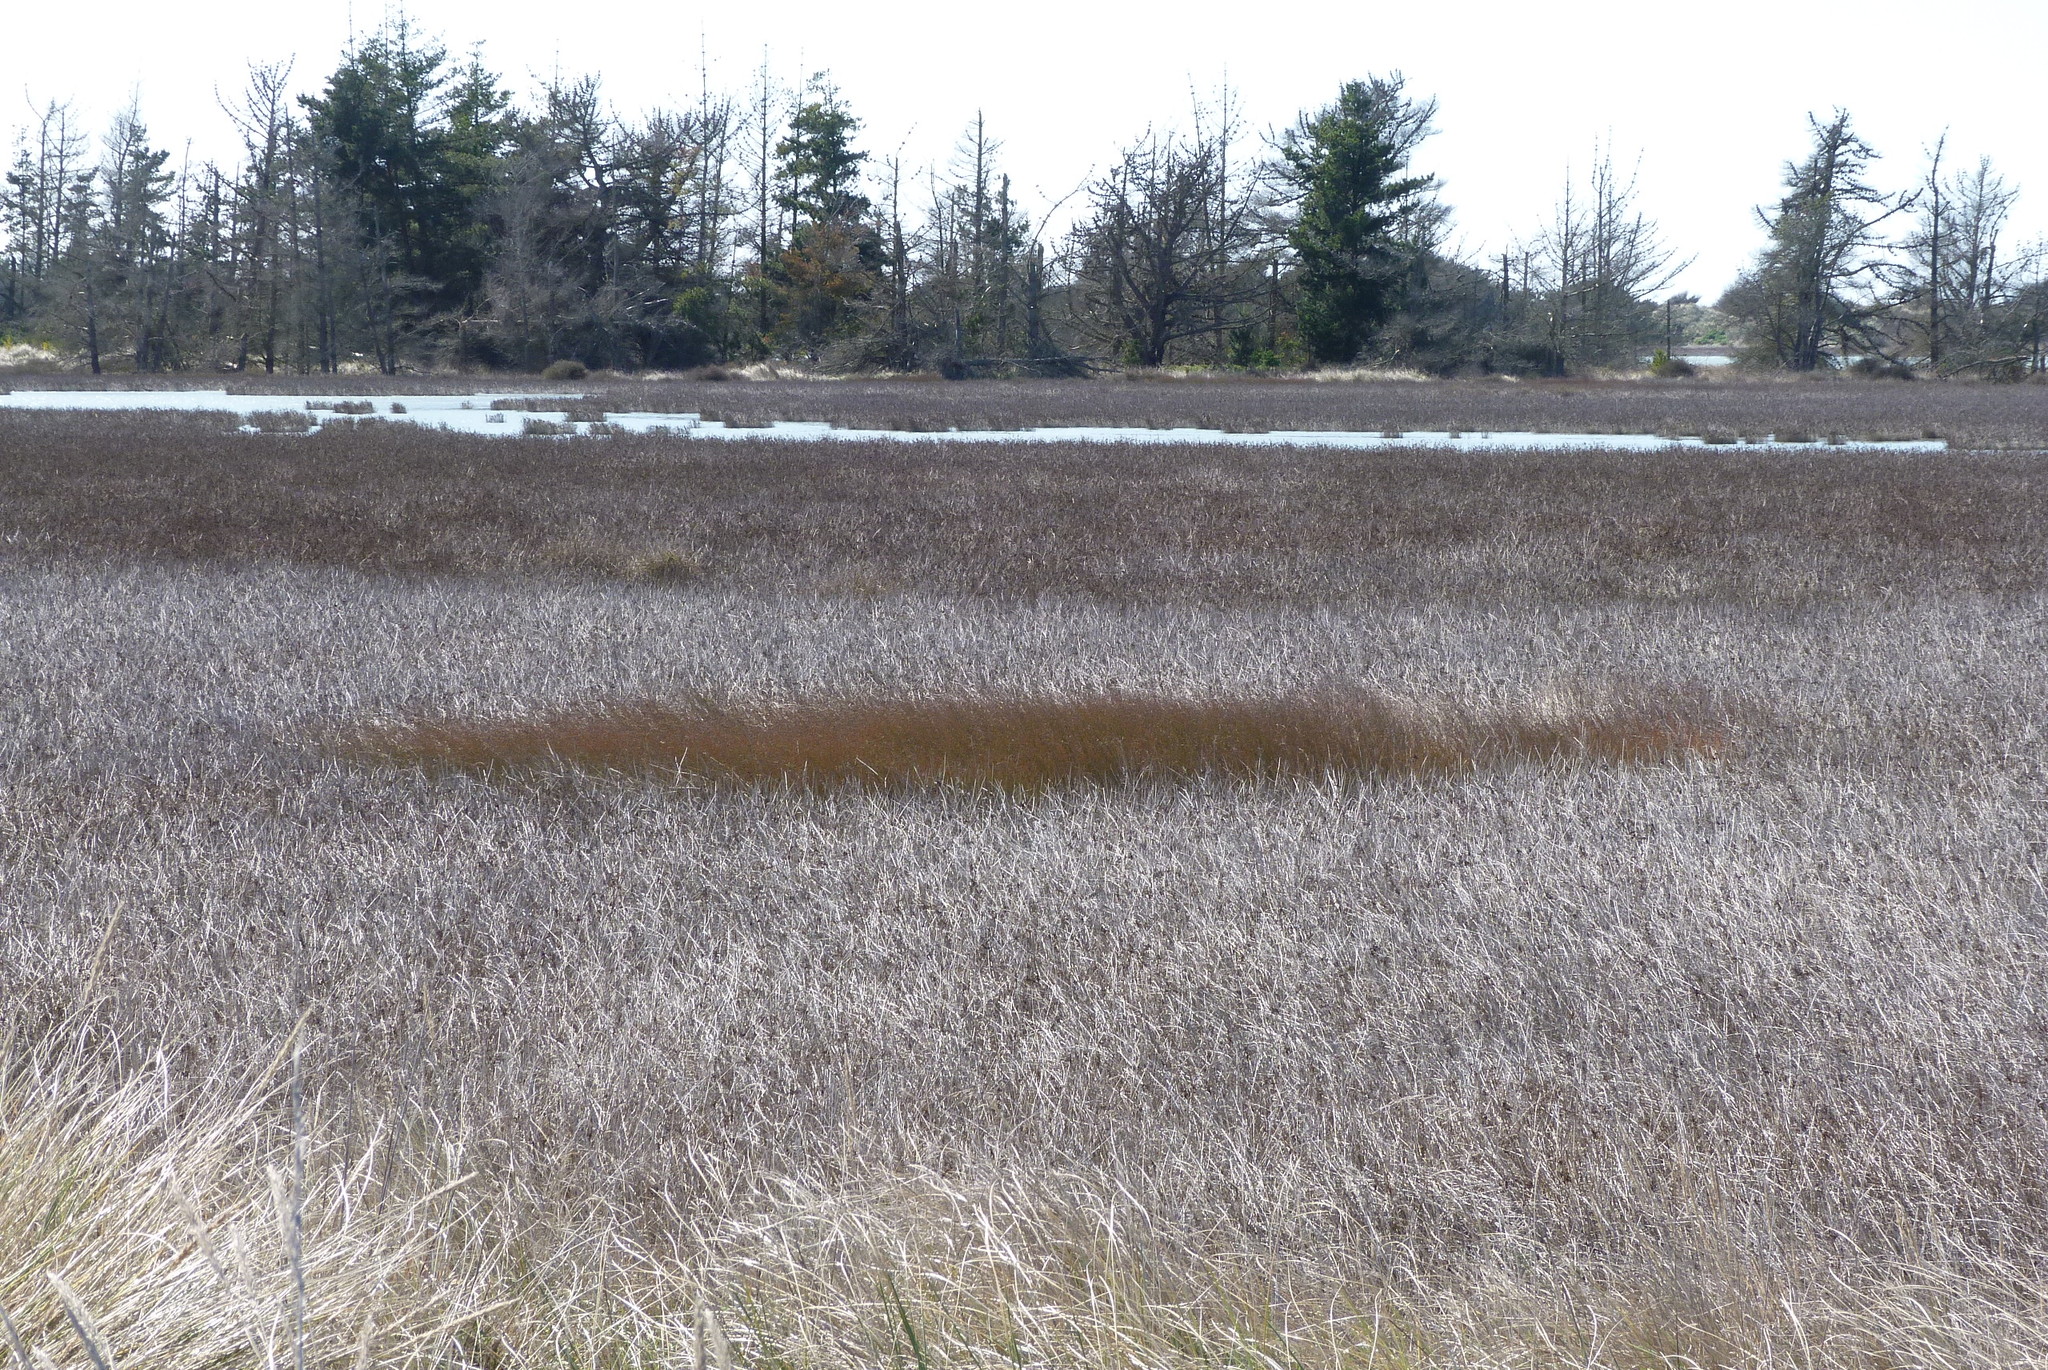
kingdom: Plantae
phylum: Tracheophyta
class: Liliopsida
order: Poales
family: Restionaceae
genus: Apodasmia
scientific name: Apodasmia similis
